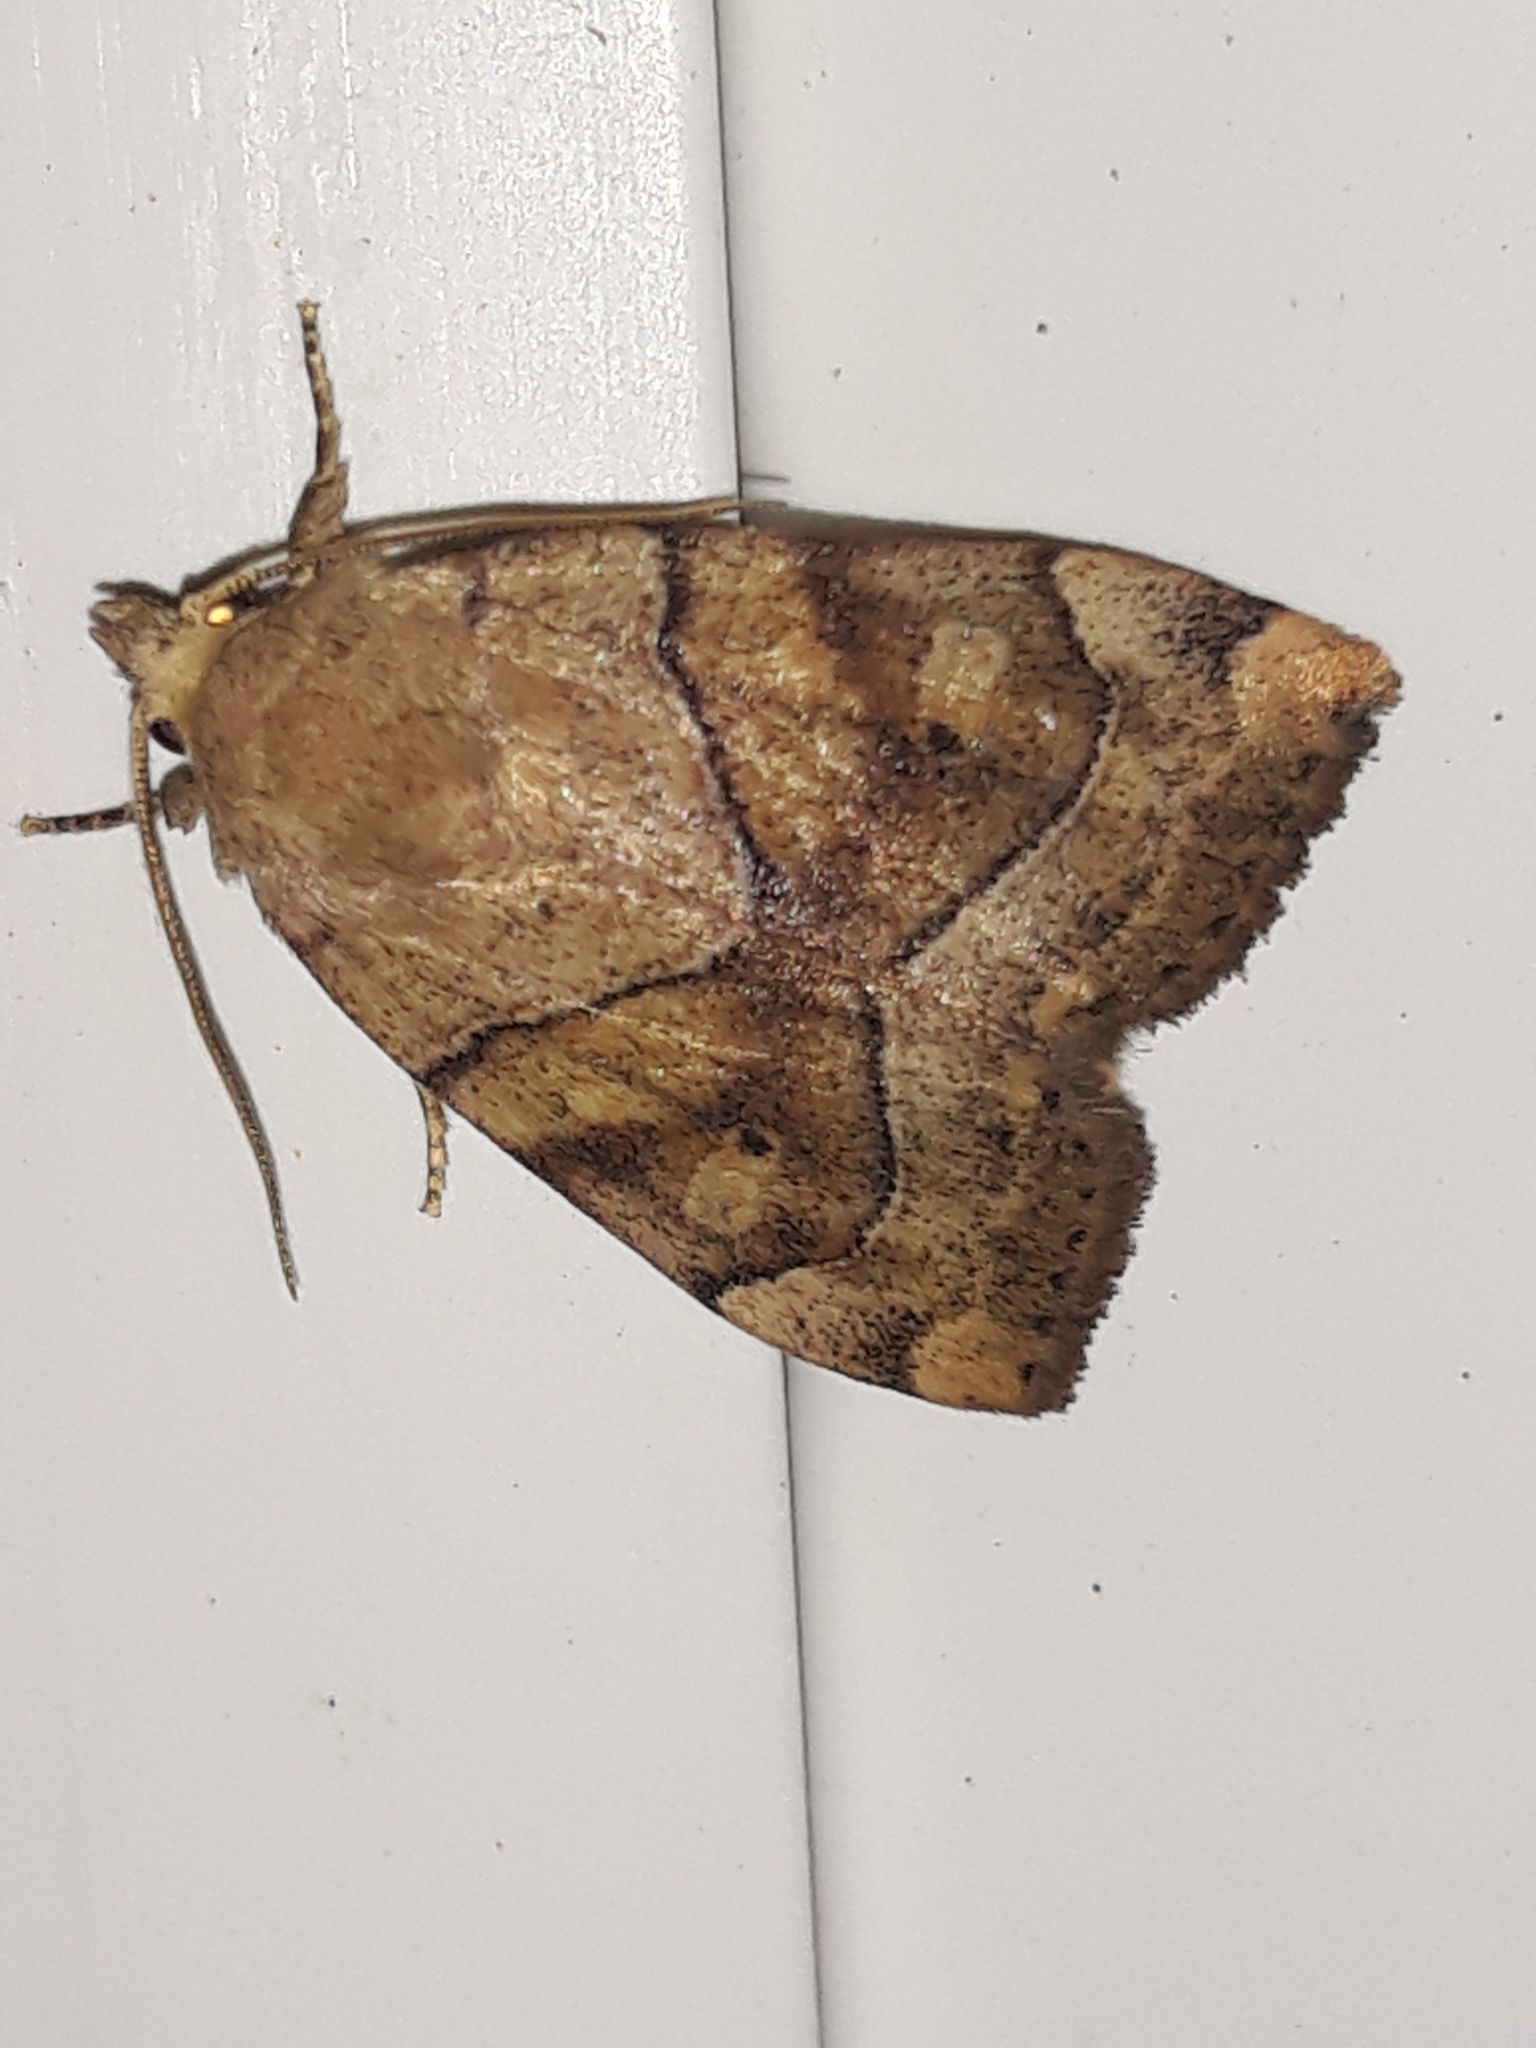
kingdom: Animalia
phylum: Arthropoda
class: Insecta
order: Lepidoptera
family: Noctuidae
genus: Cosmia
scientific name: Cosmia trapezina
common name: Dun-bar
